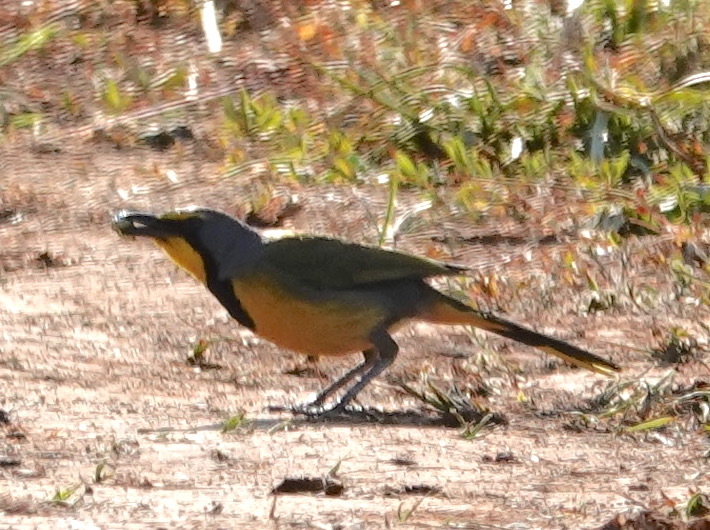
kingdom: Animalia
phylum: Chordata
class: Aves
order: Passeriformes
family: Malaconotidae
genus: Telophorus
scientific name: Telophorus zeylonus
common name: Bokmakierie
